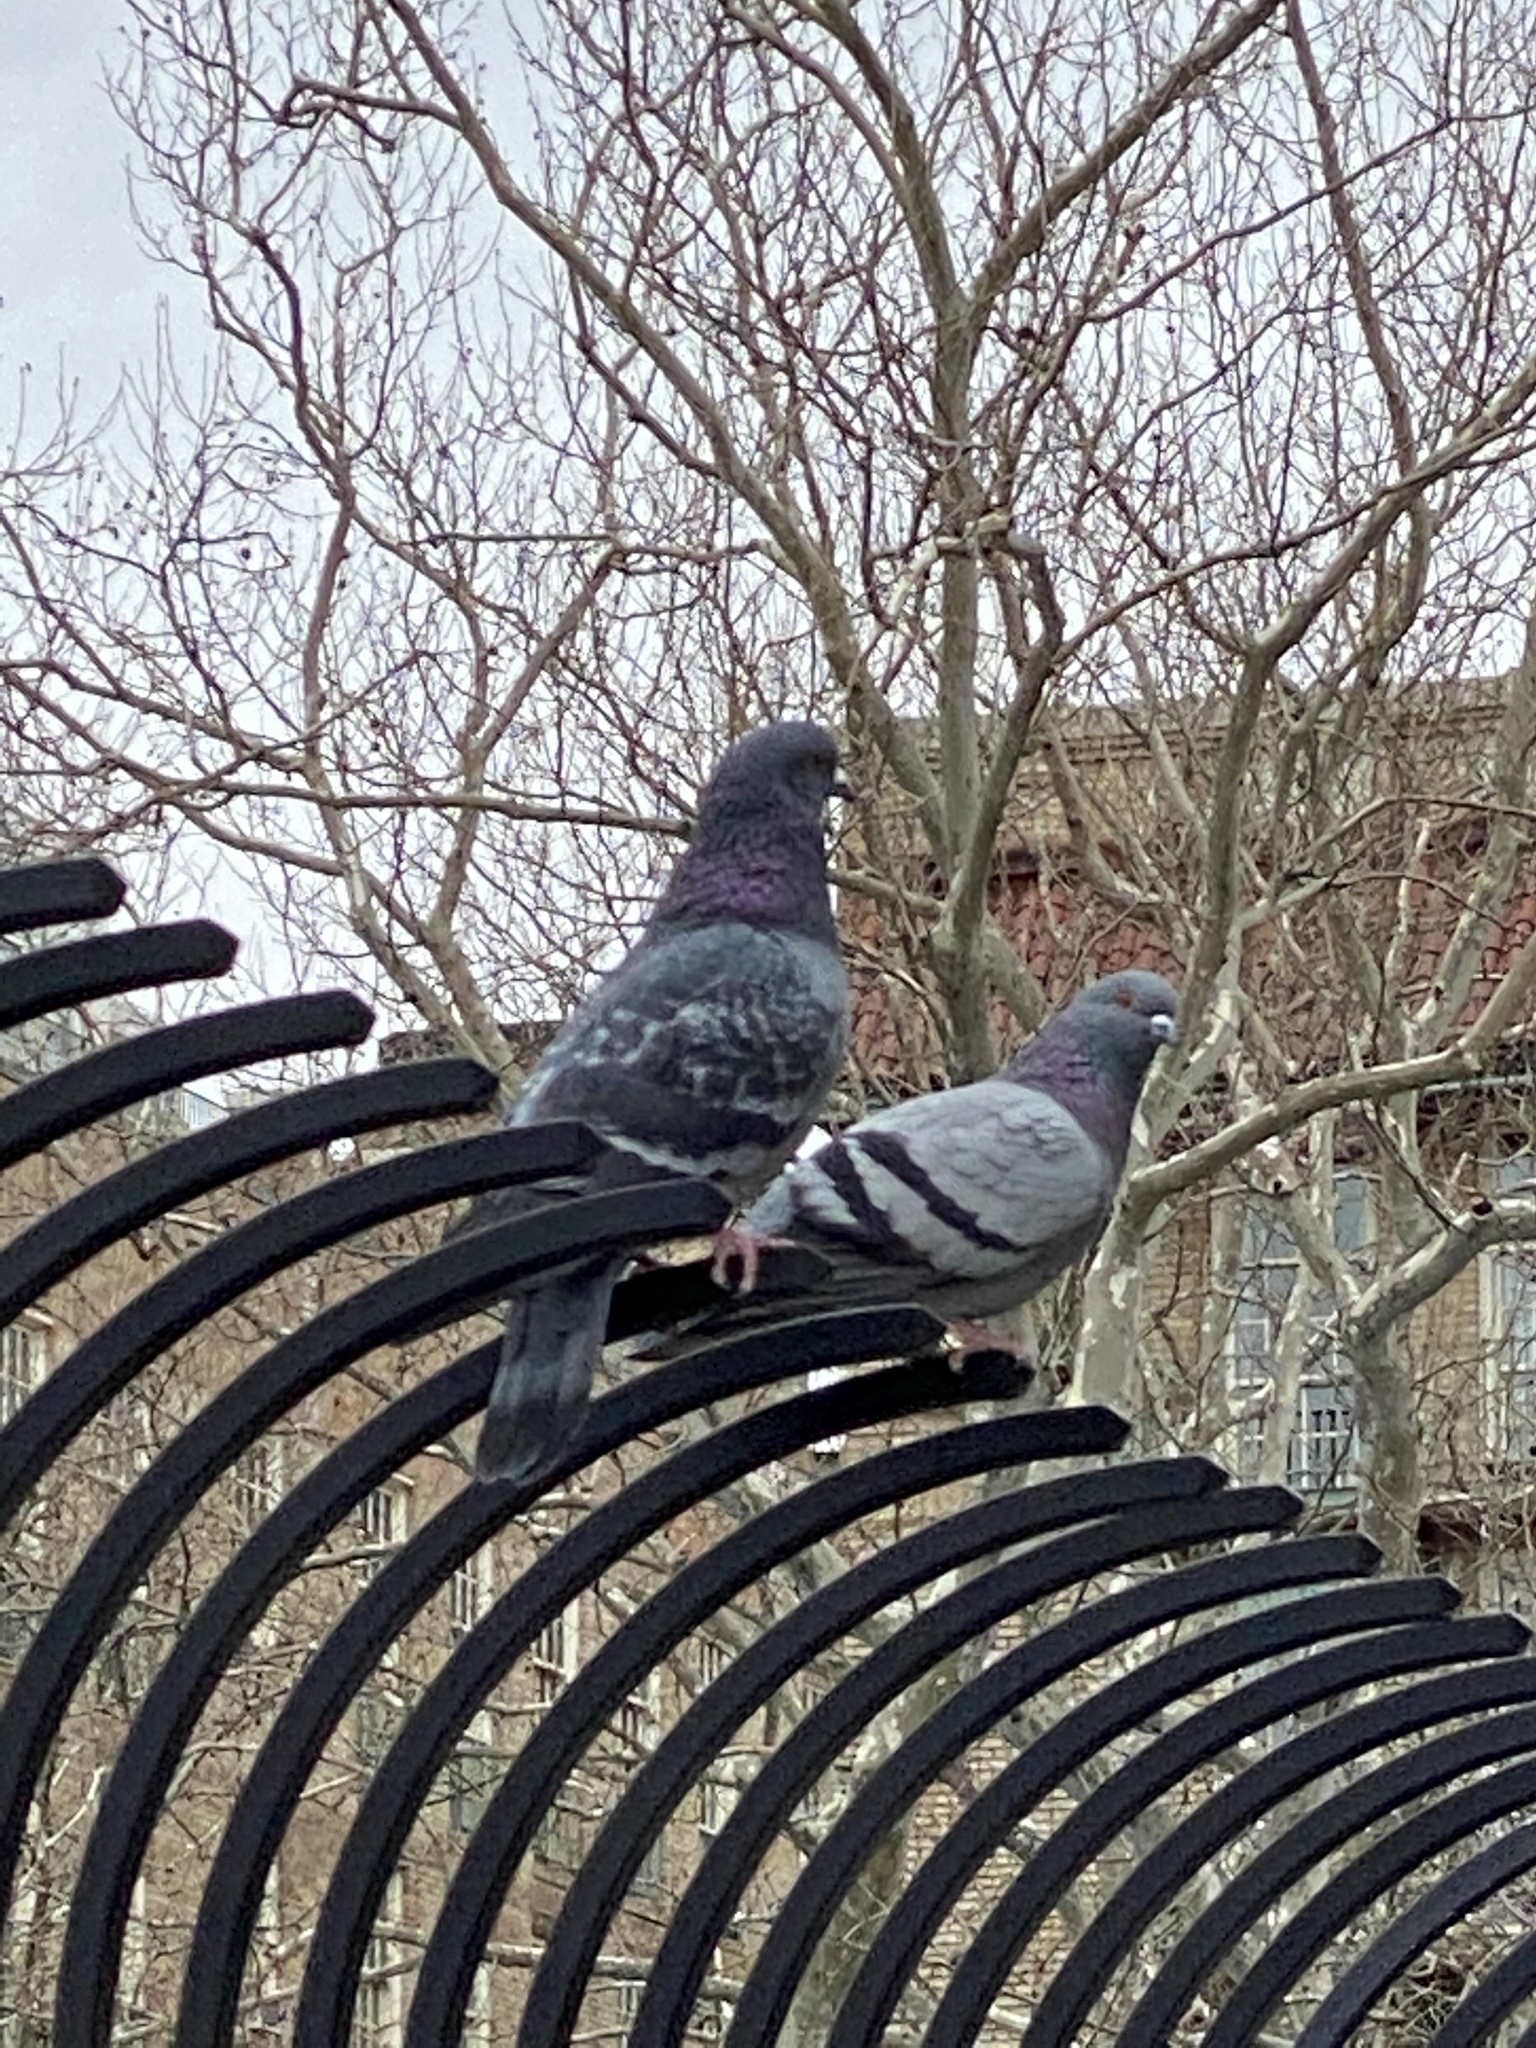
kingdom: Animalia
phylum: Chordata
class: Aves
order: Columbiformes
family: Columbidae
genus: Columba
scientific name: Columba livia
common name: Rock pigeon
